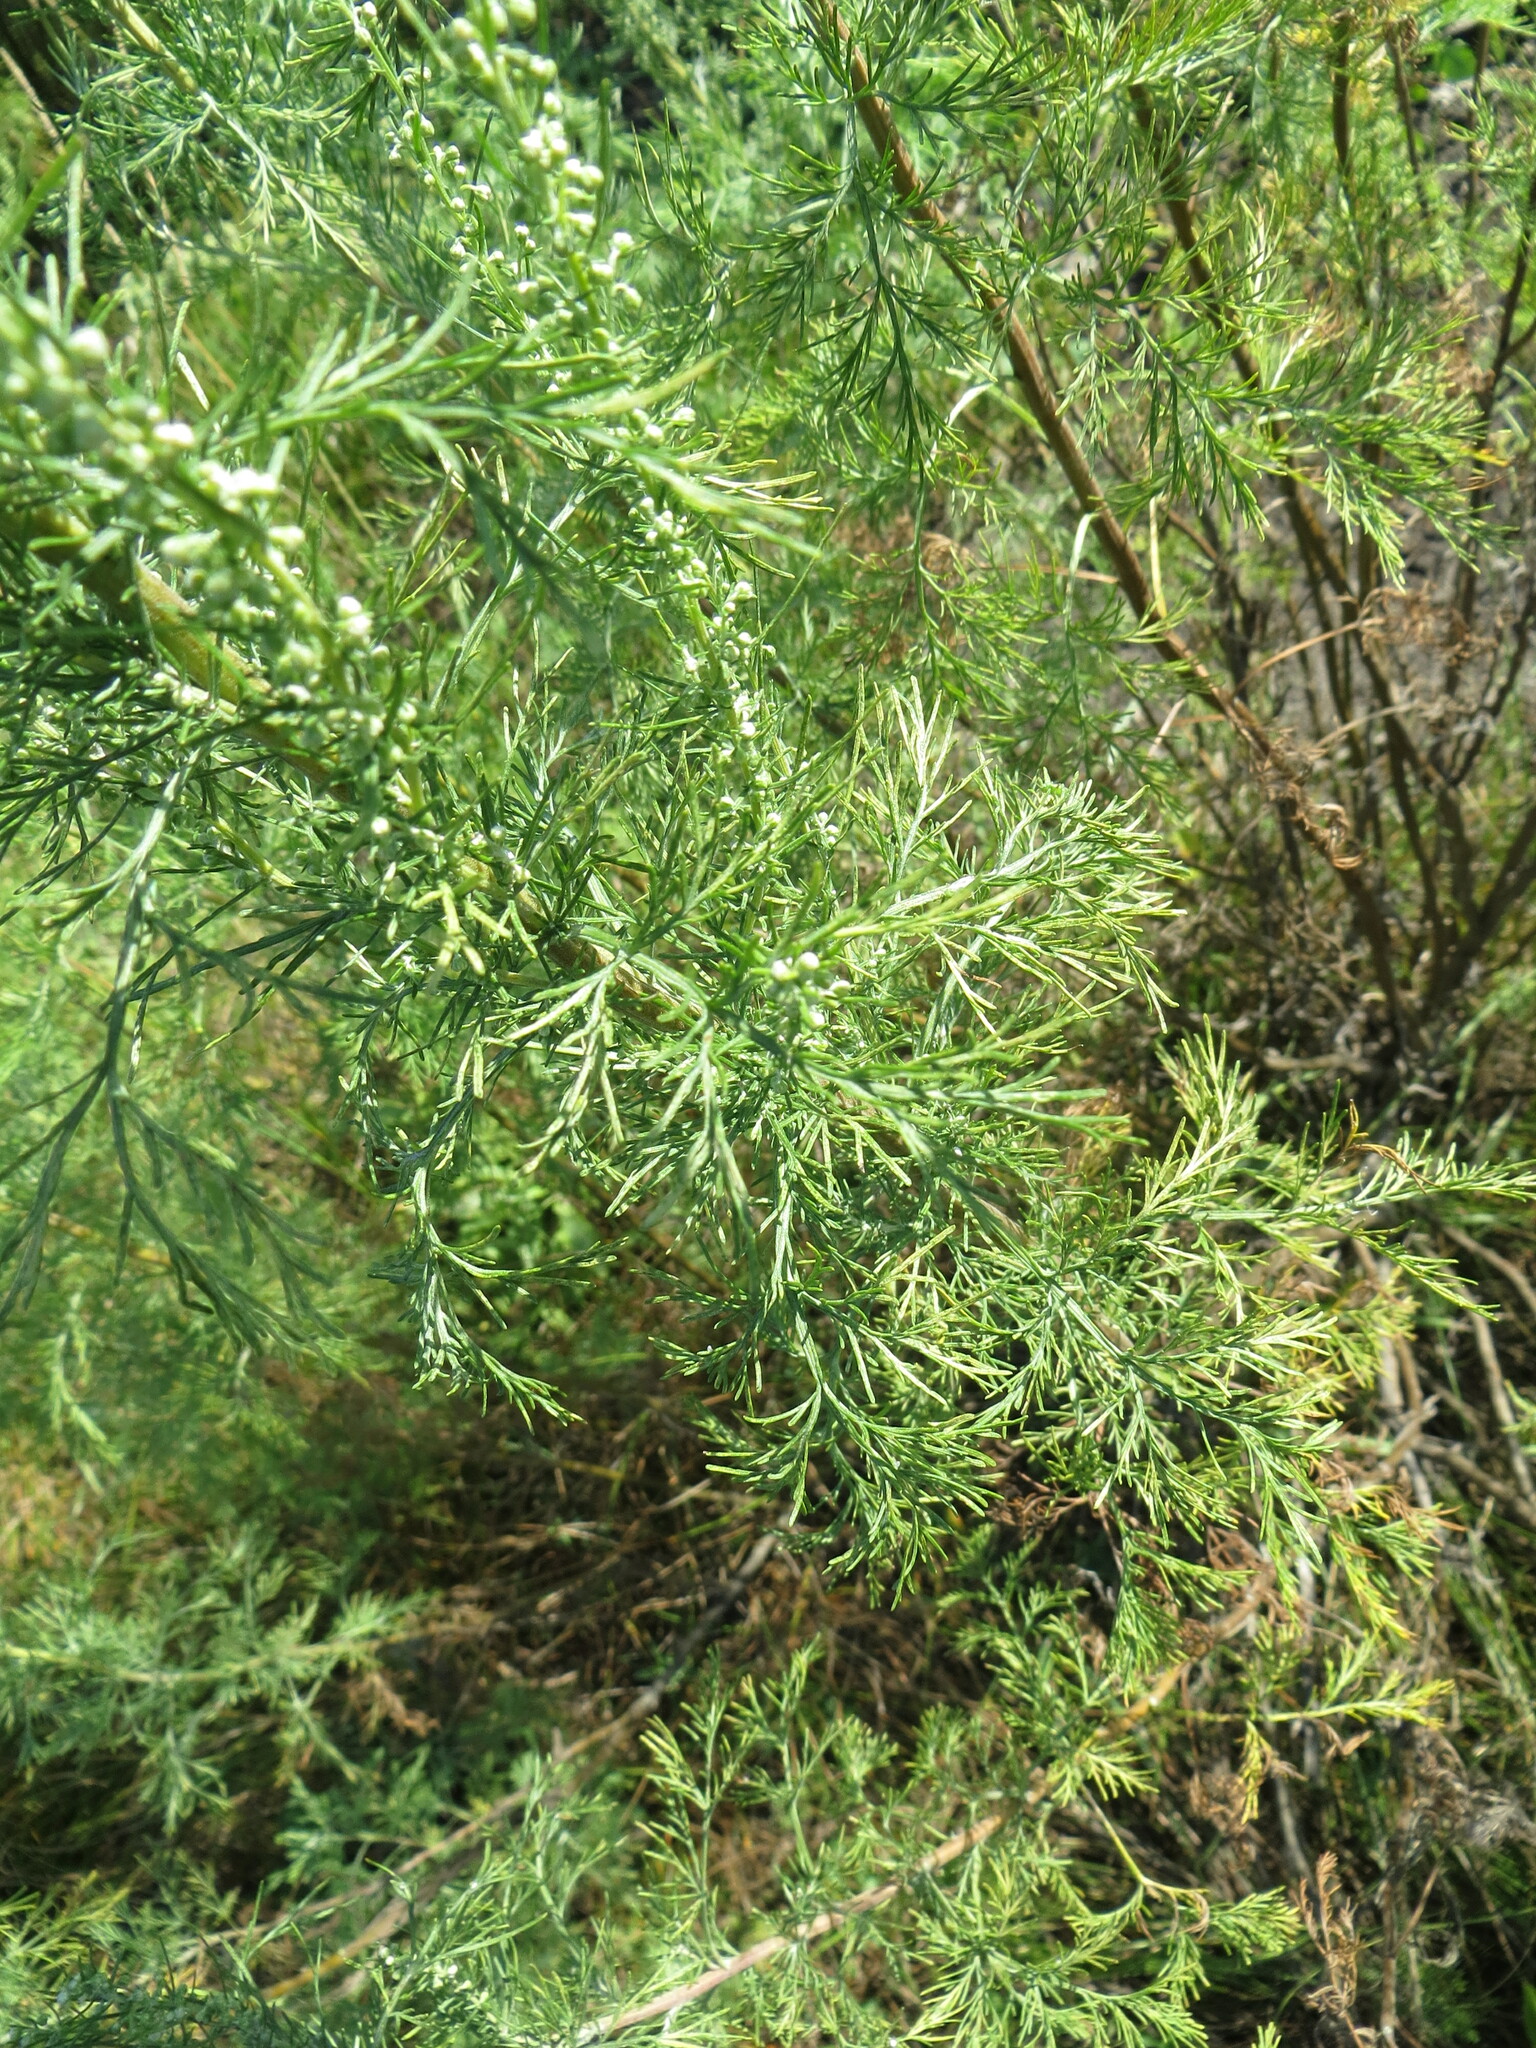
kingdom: Plantae
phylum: Tracheophyta
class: Magnoliopsida
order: Asterales
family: Asteraceae
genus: Artemisia
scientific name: Artemisia abrotanum
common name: Southernwood
